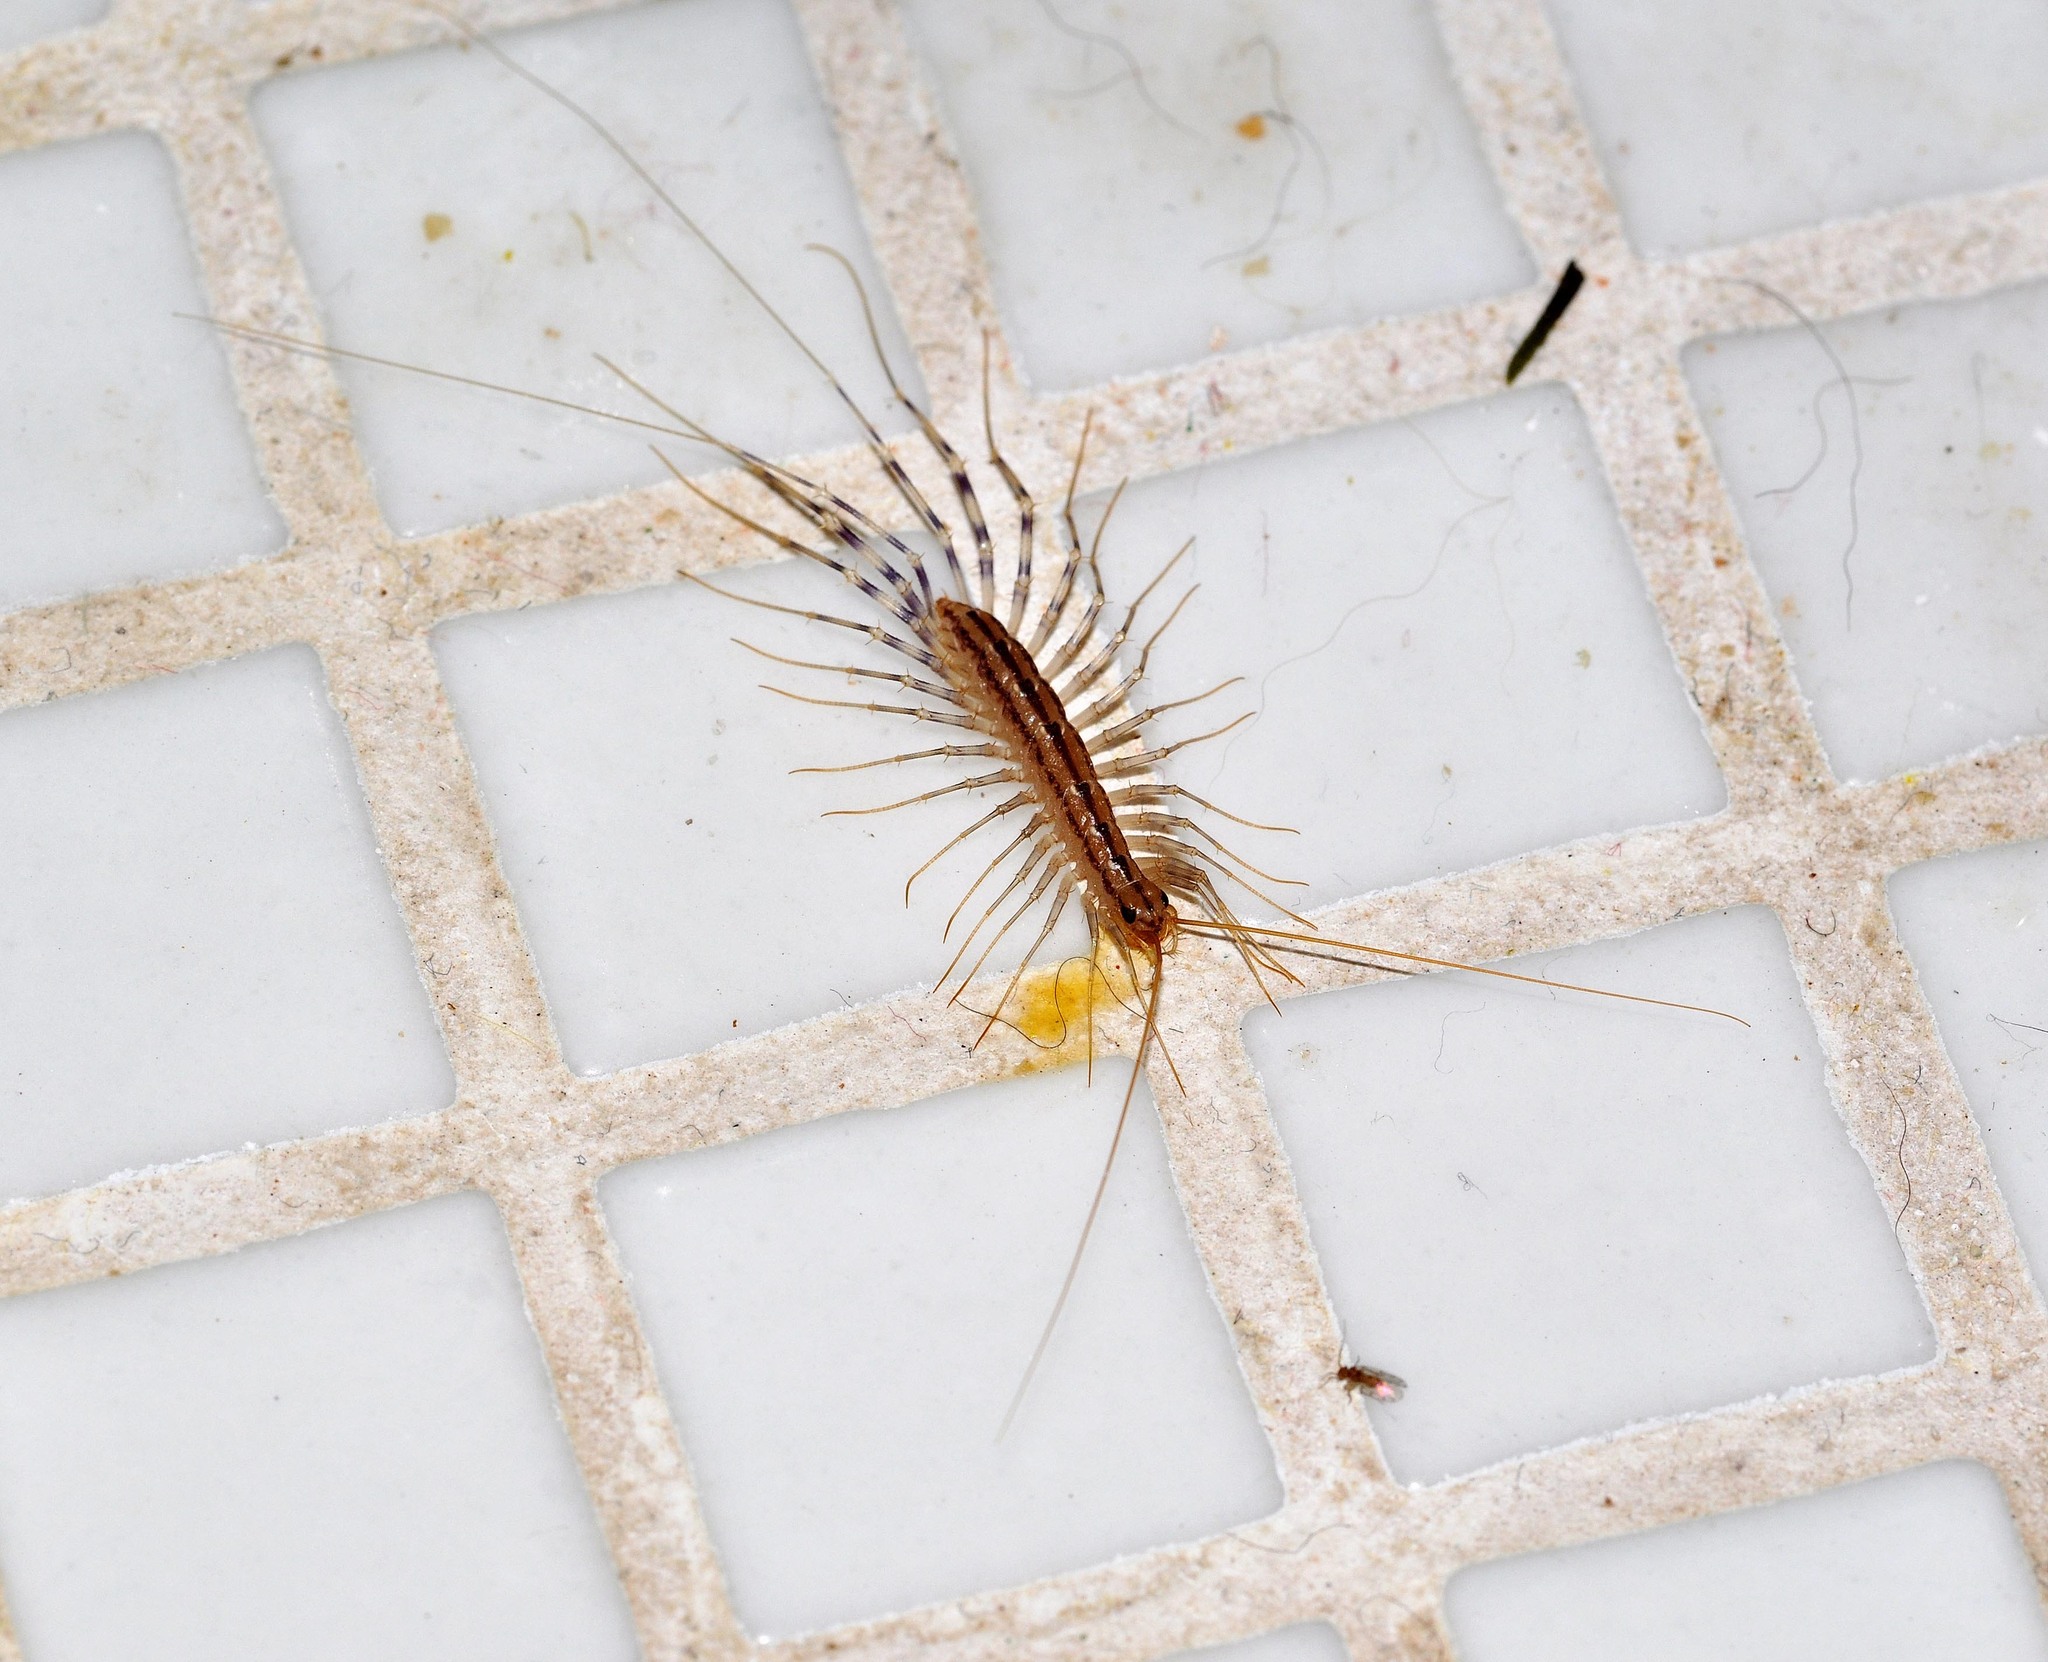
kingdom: Animalia
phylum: Arthropoda
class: Chilopoda
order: Scutigeromorpha
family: Scutigeridae
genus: Scutigera
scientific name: Scutigera coleoptrata
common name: House centipede
